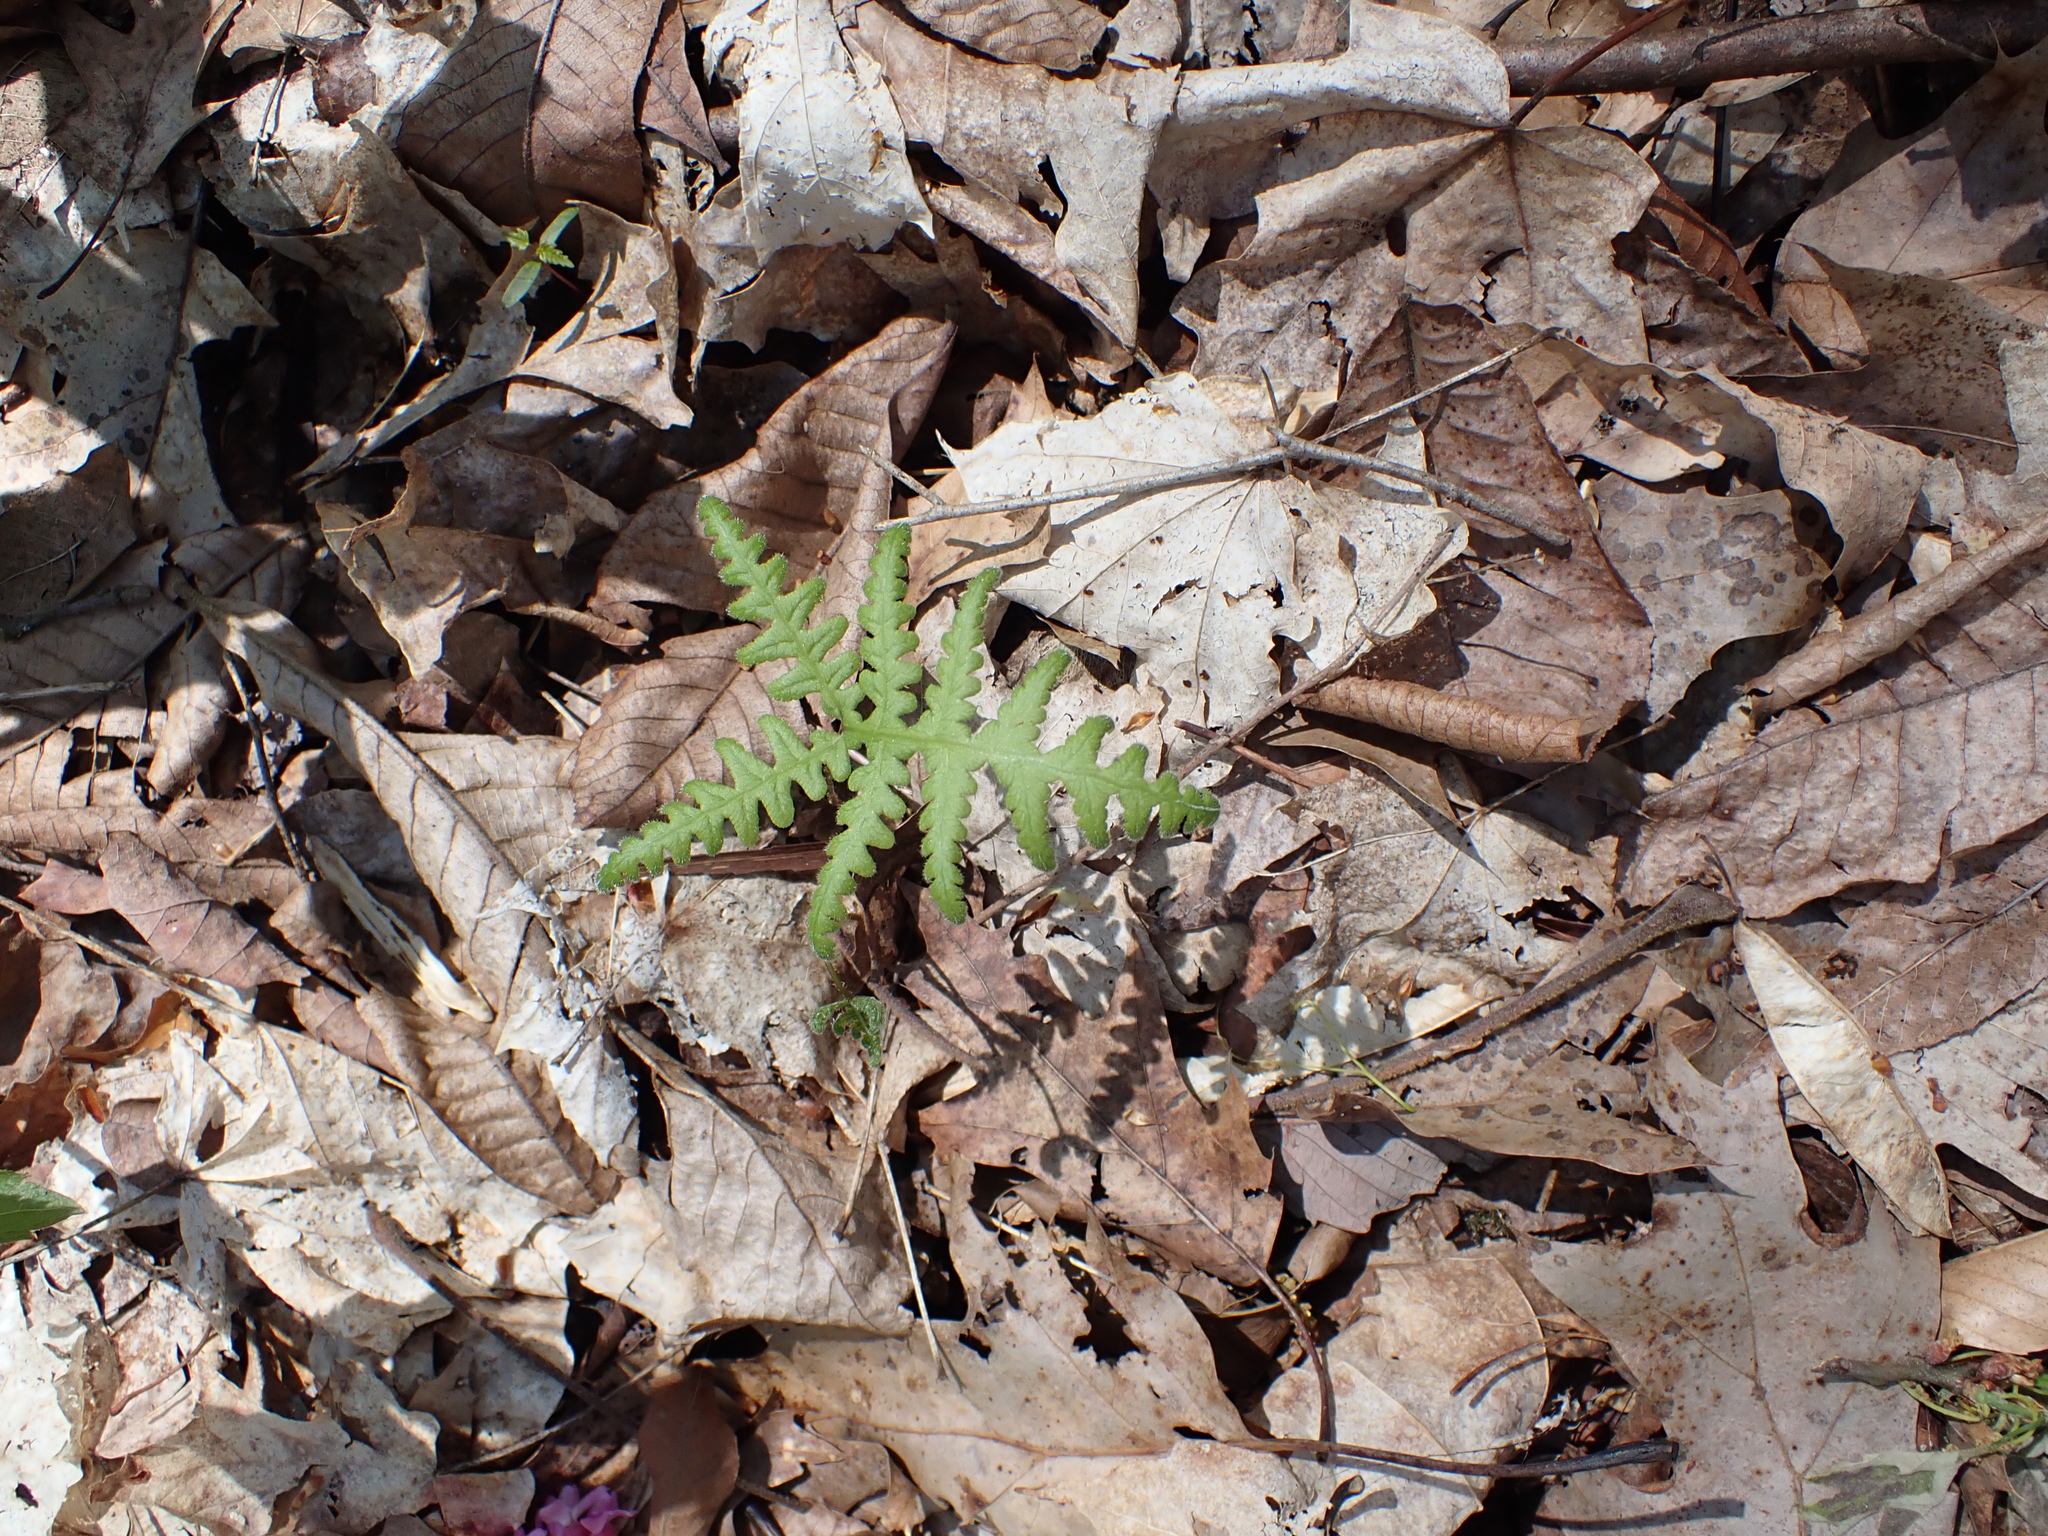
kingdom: Plantae
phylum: Tracheophyta
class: Polypodiopsida
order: Polypodiales
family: Thelypteridaceae
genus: Phegopteris
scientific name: Phegopteris hexagonoptera
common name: Broad beech fern
